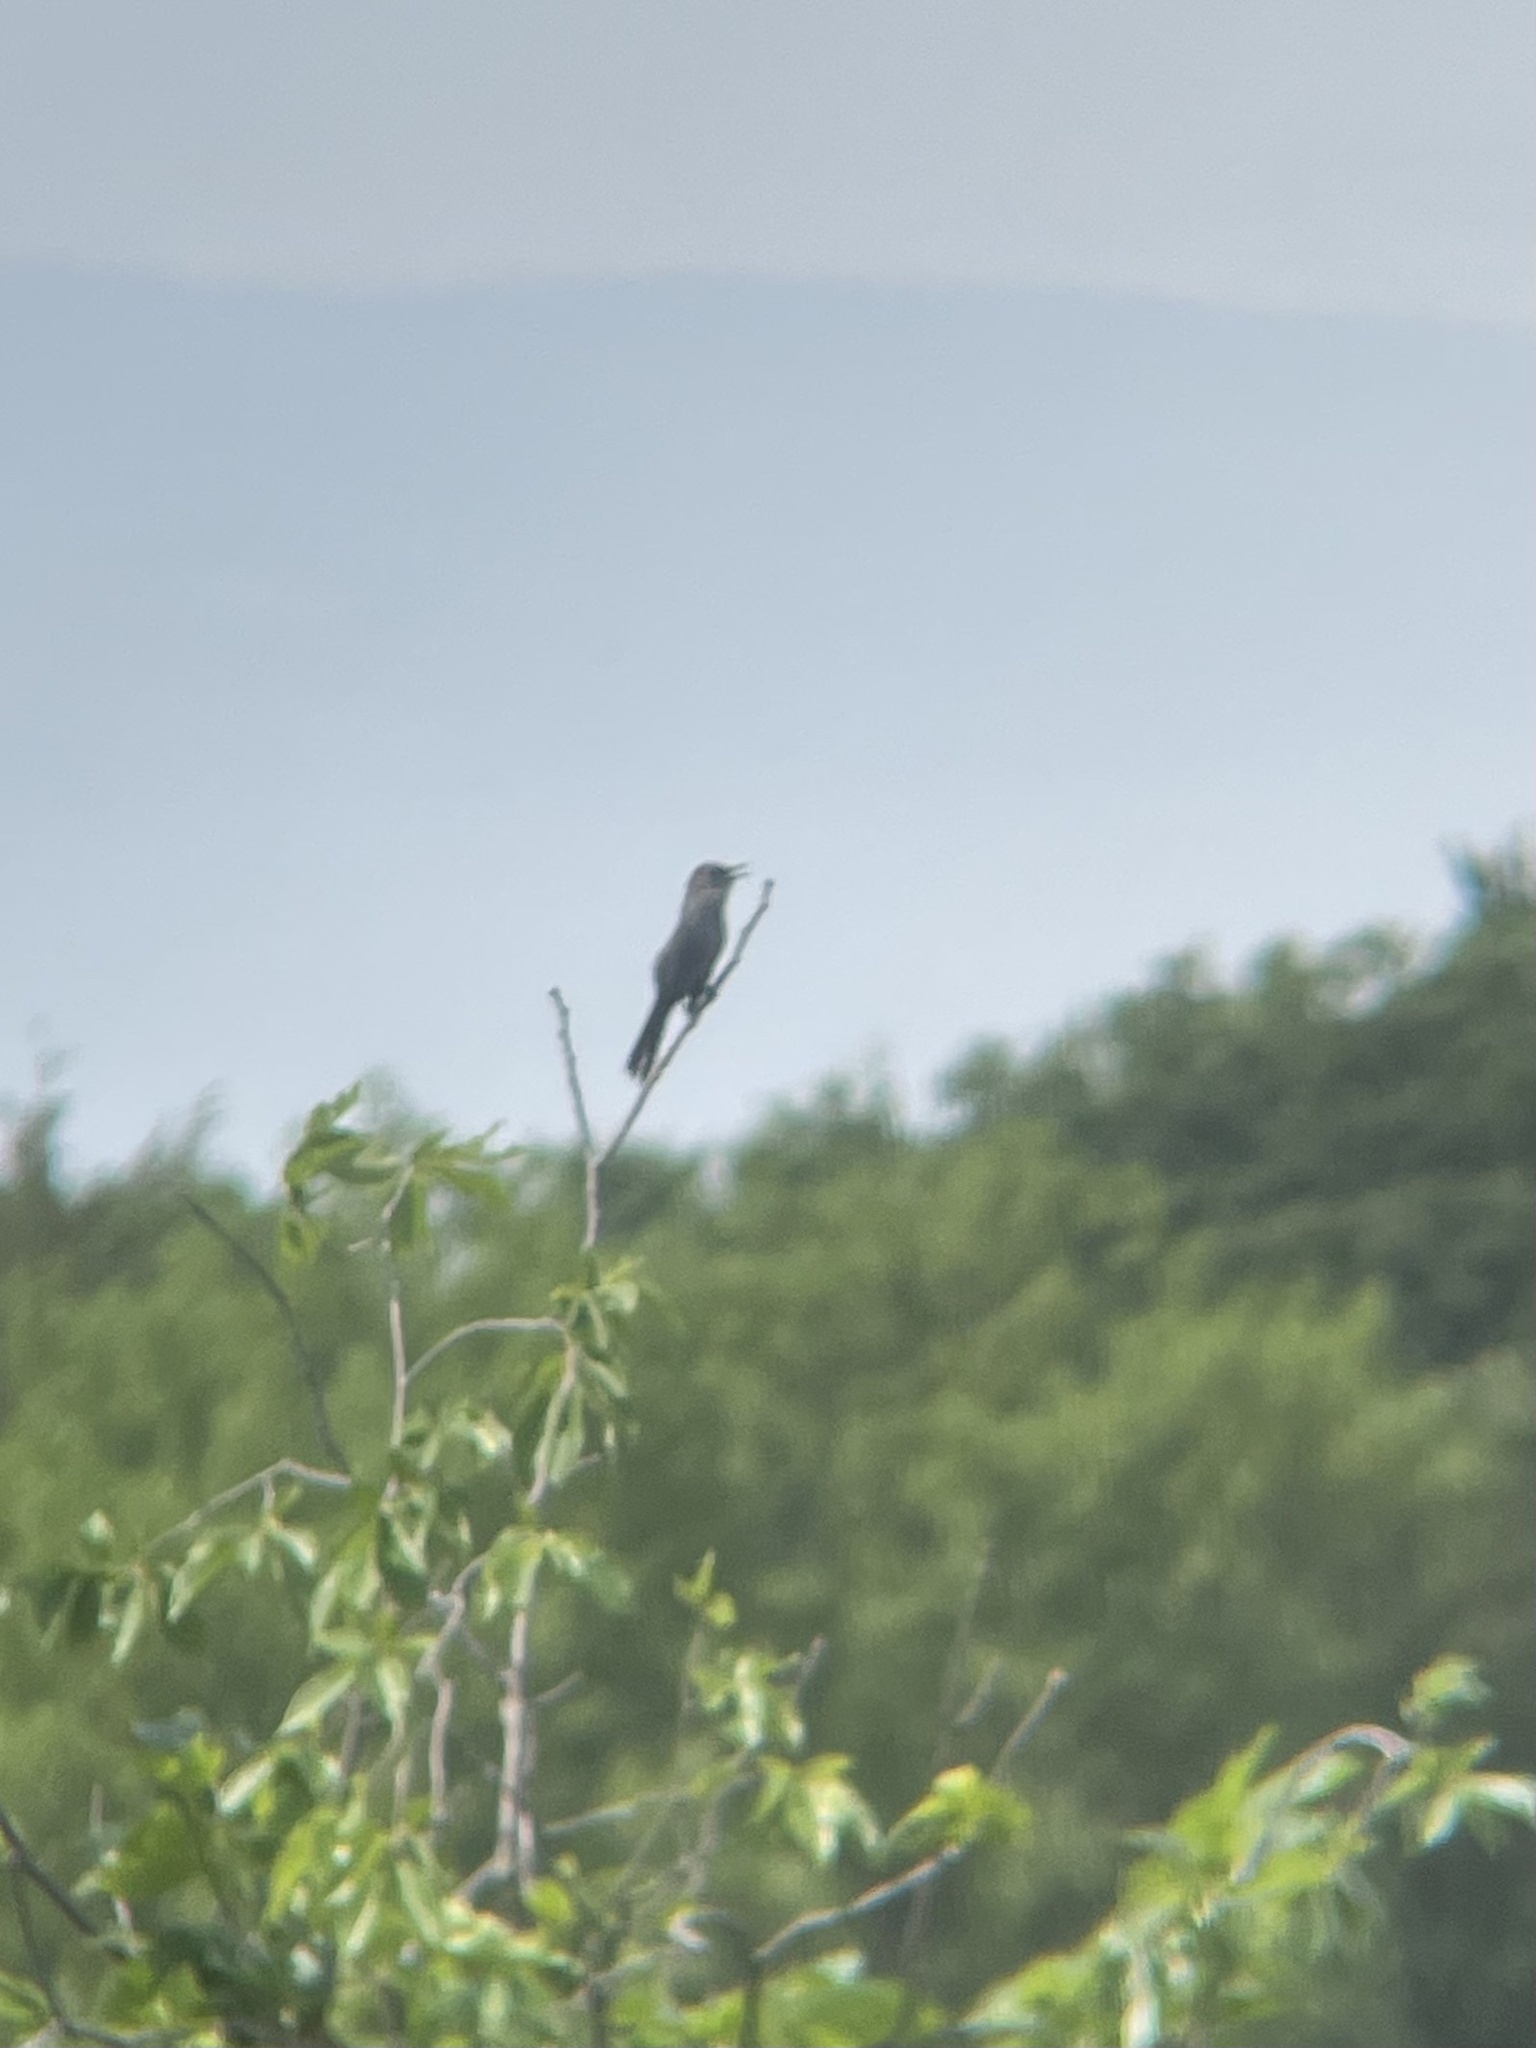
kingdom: Animalia
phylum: Chordata
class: Aves
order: Passeriformes
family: Mimidae
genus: Dumetella
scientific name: Dumetella carolinensis
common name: Gray catbird
